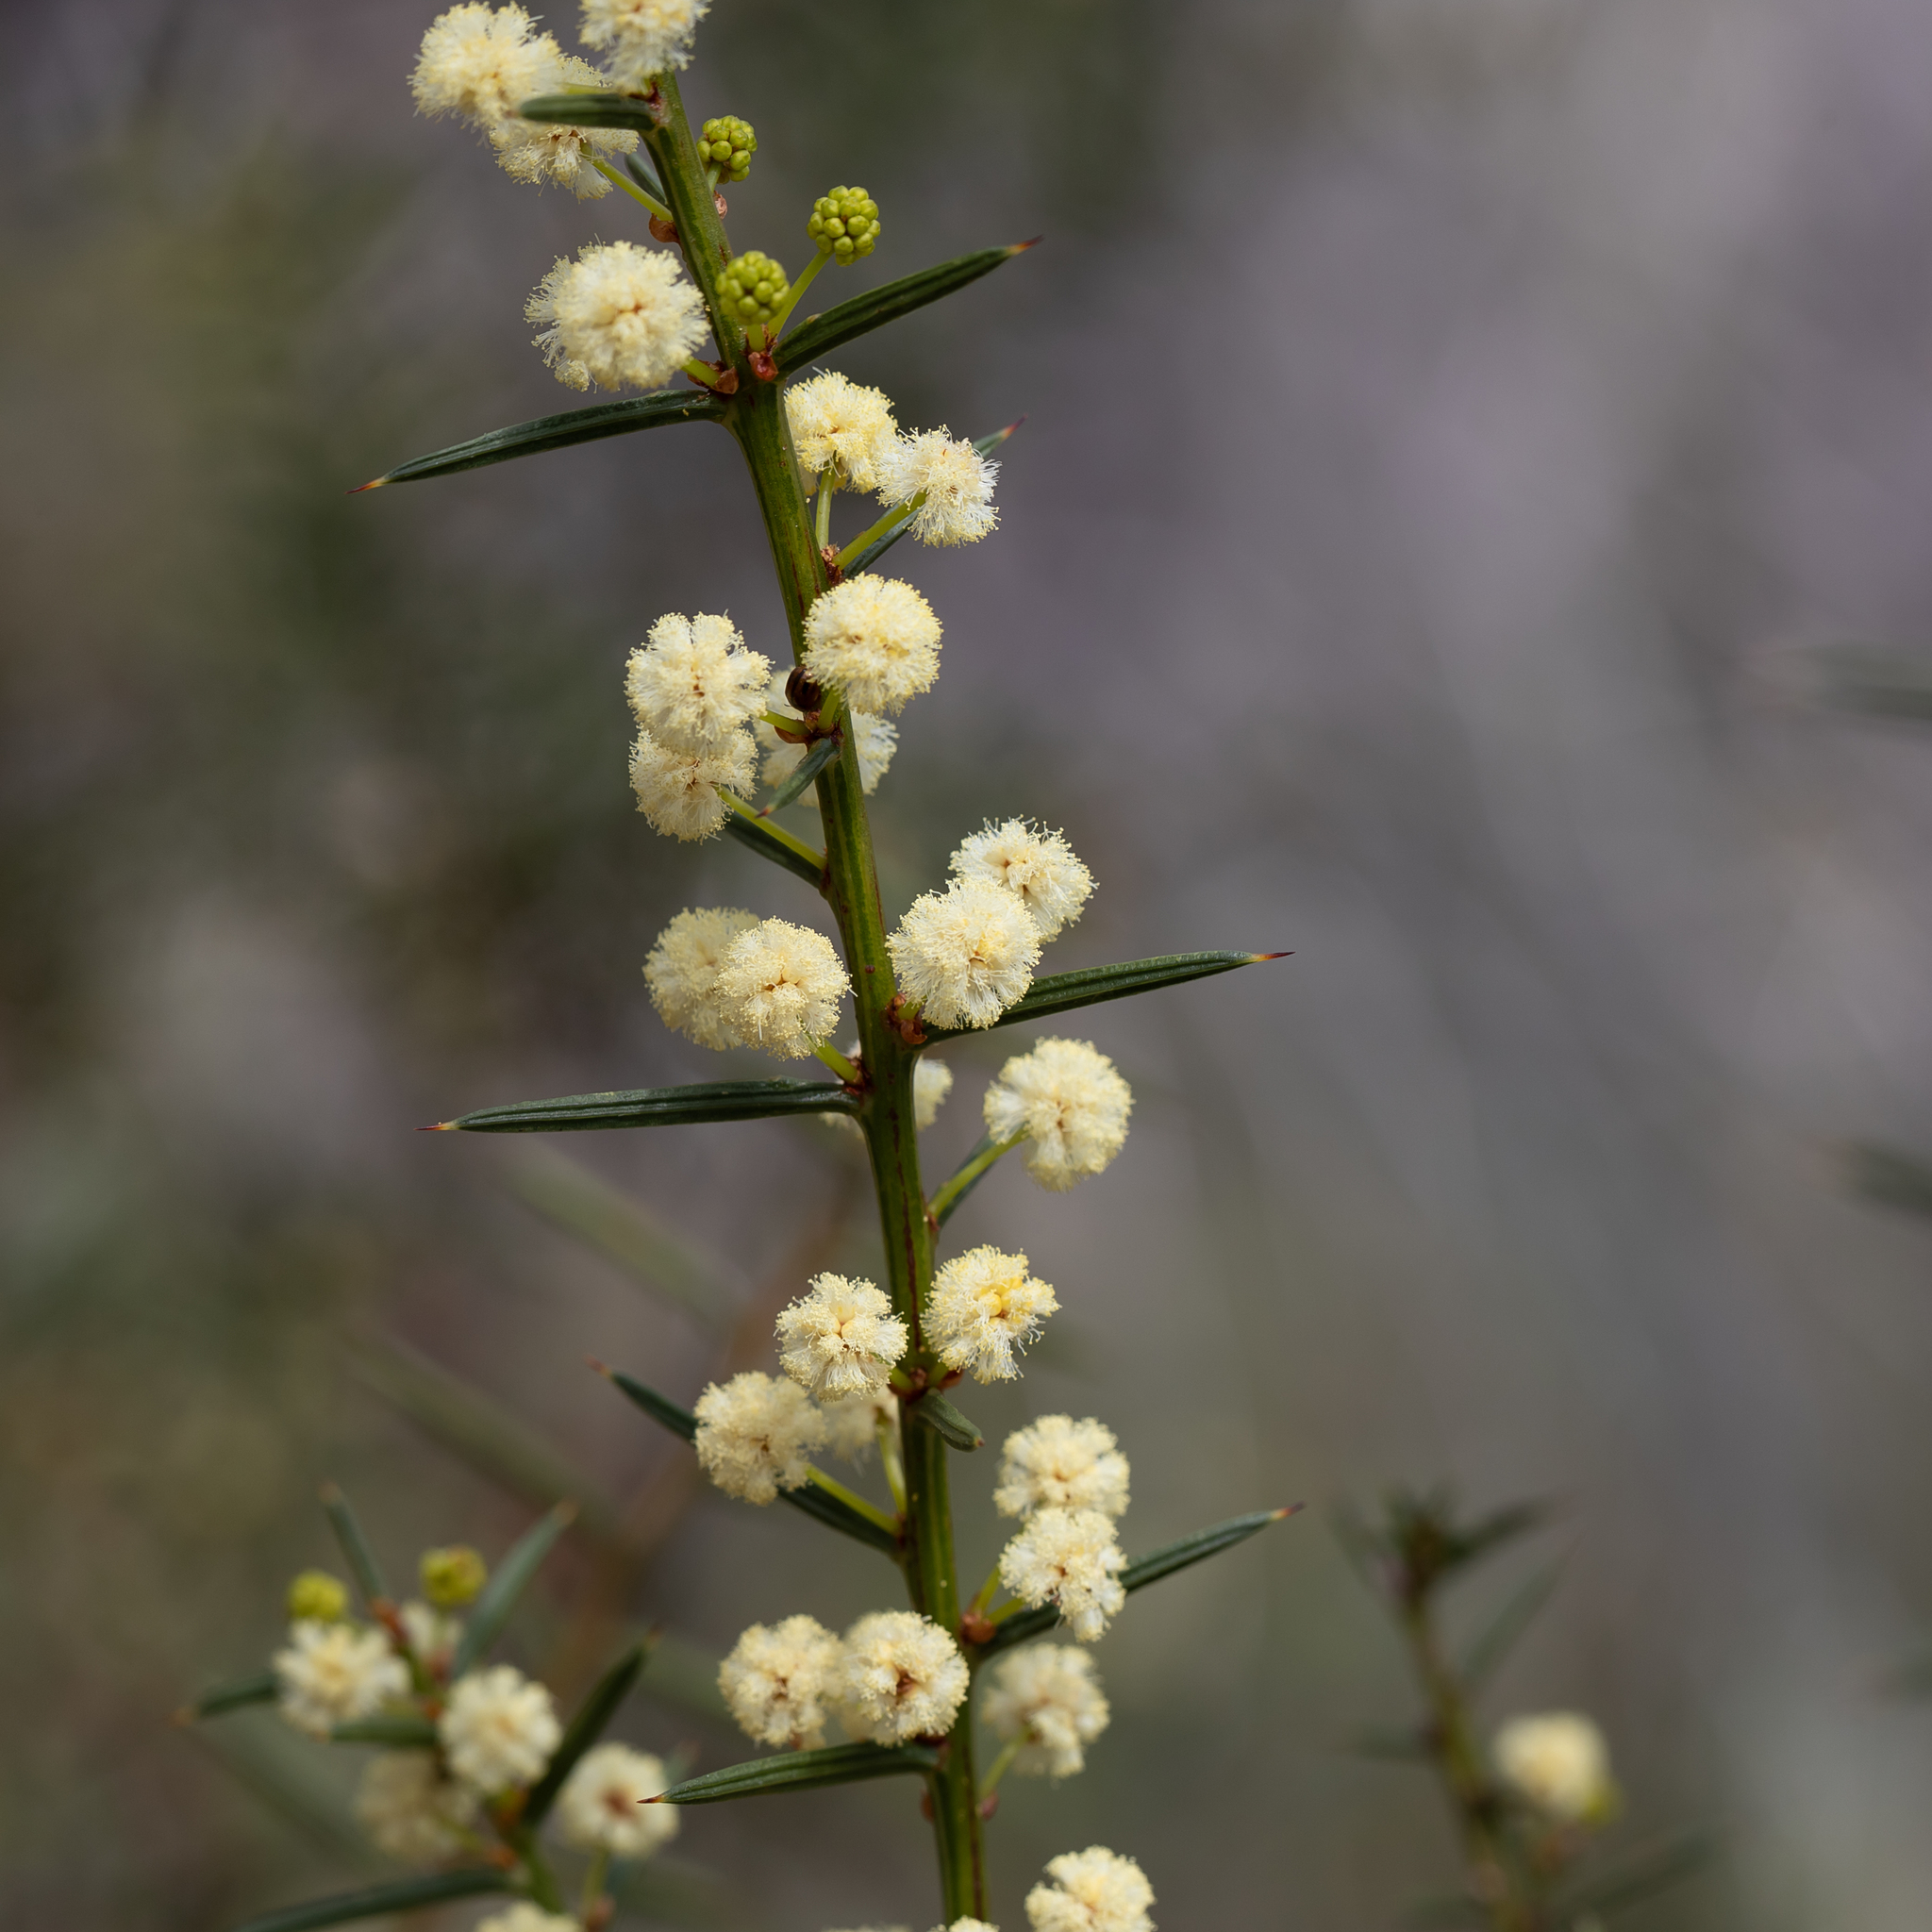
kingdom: Plantae
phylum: Tracheophyta
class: Magnoliopsida
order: Fabales
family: Fabaceae
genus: Acacia
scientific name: Acacia genistifolia
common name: Early wattle
